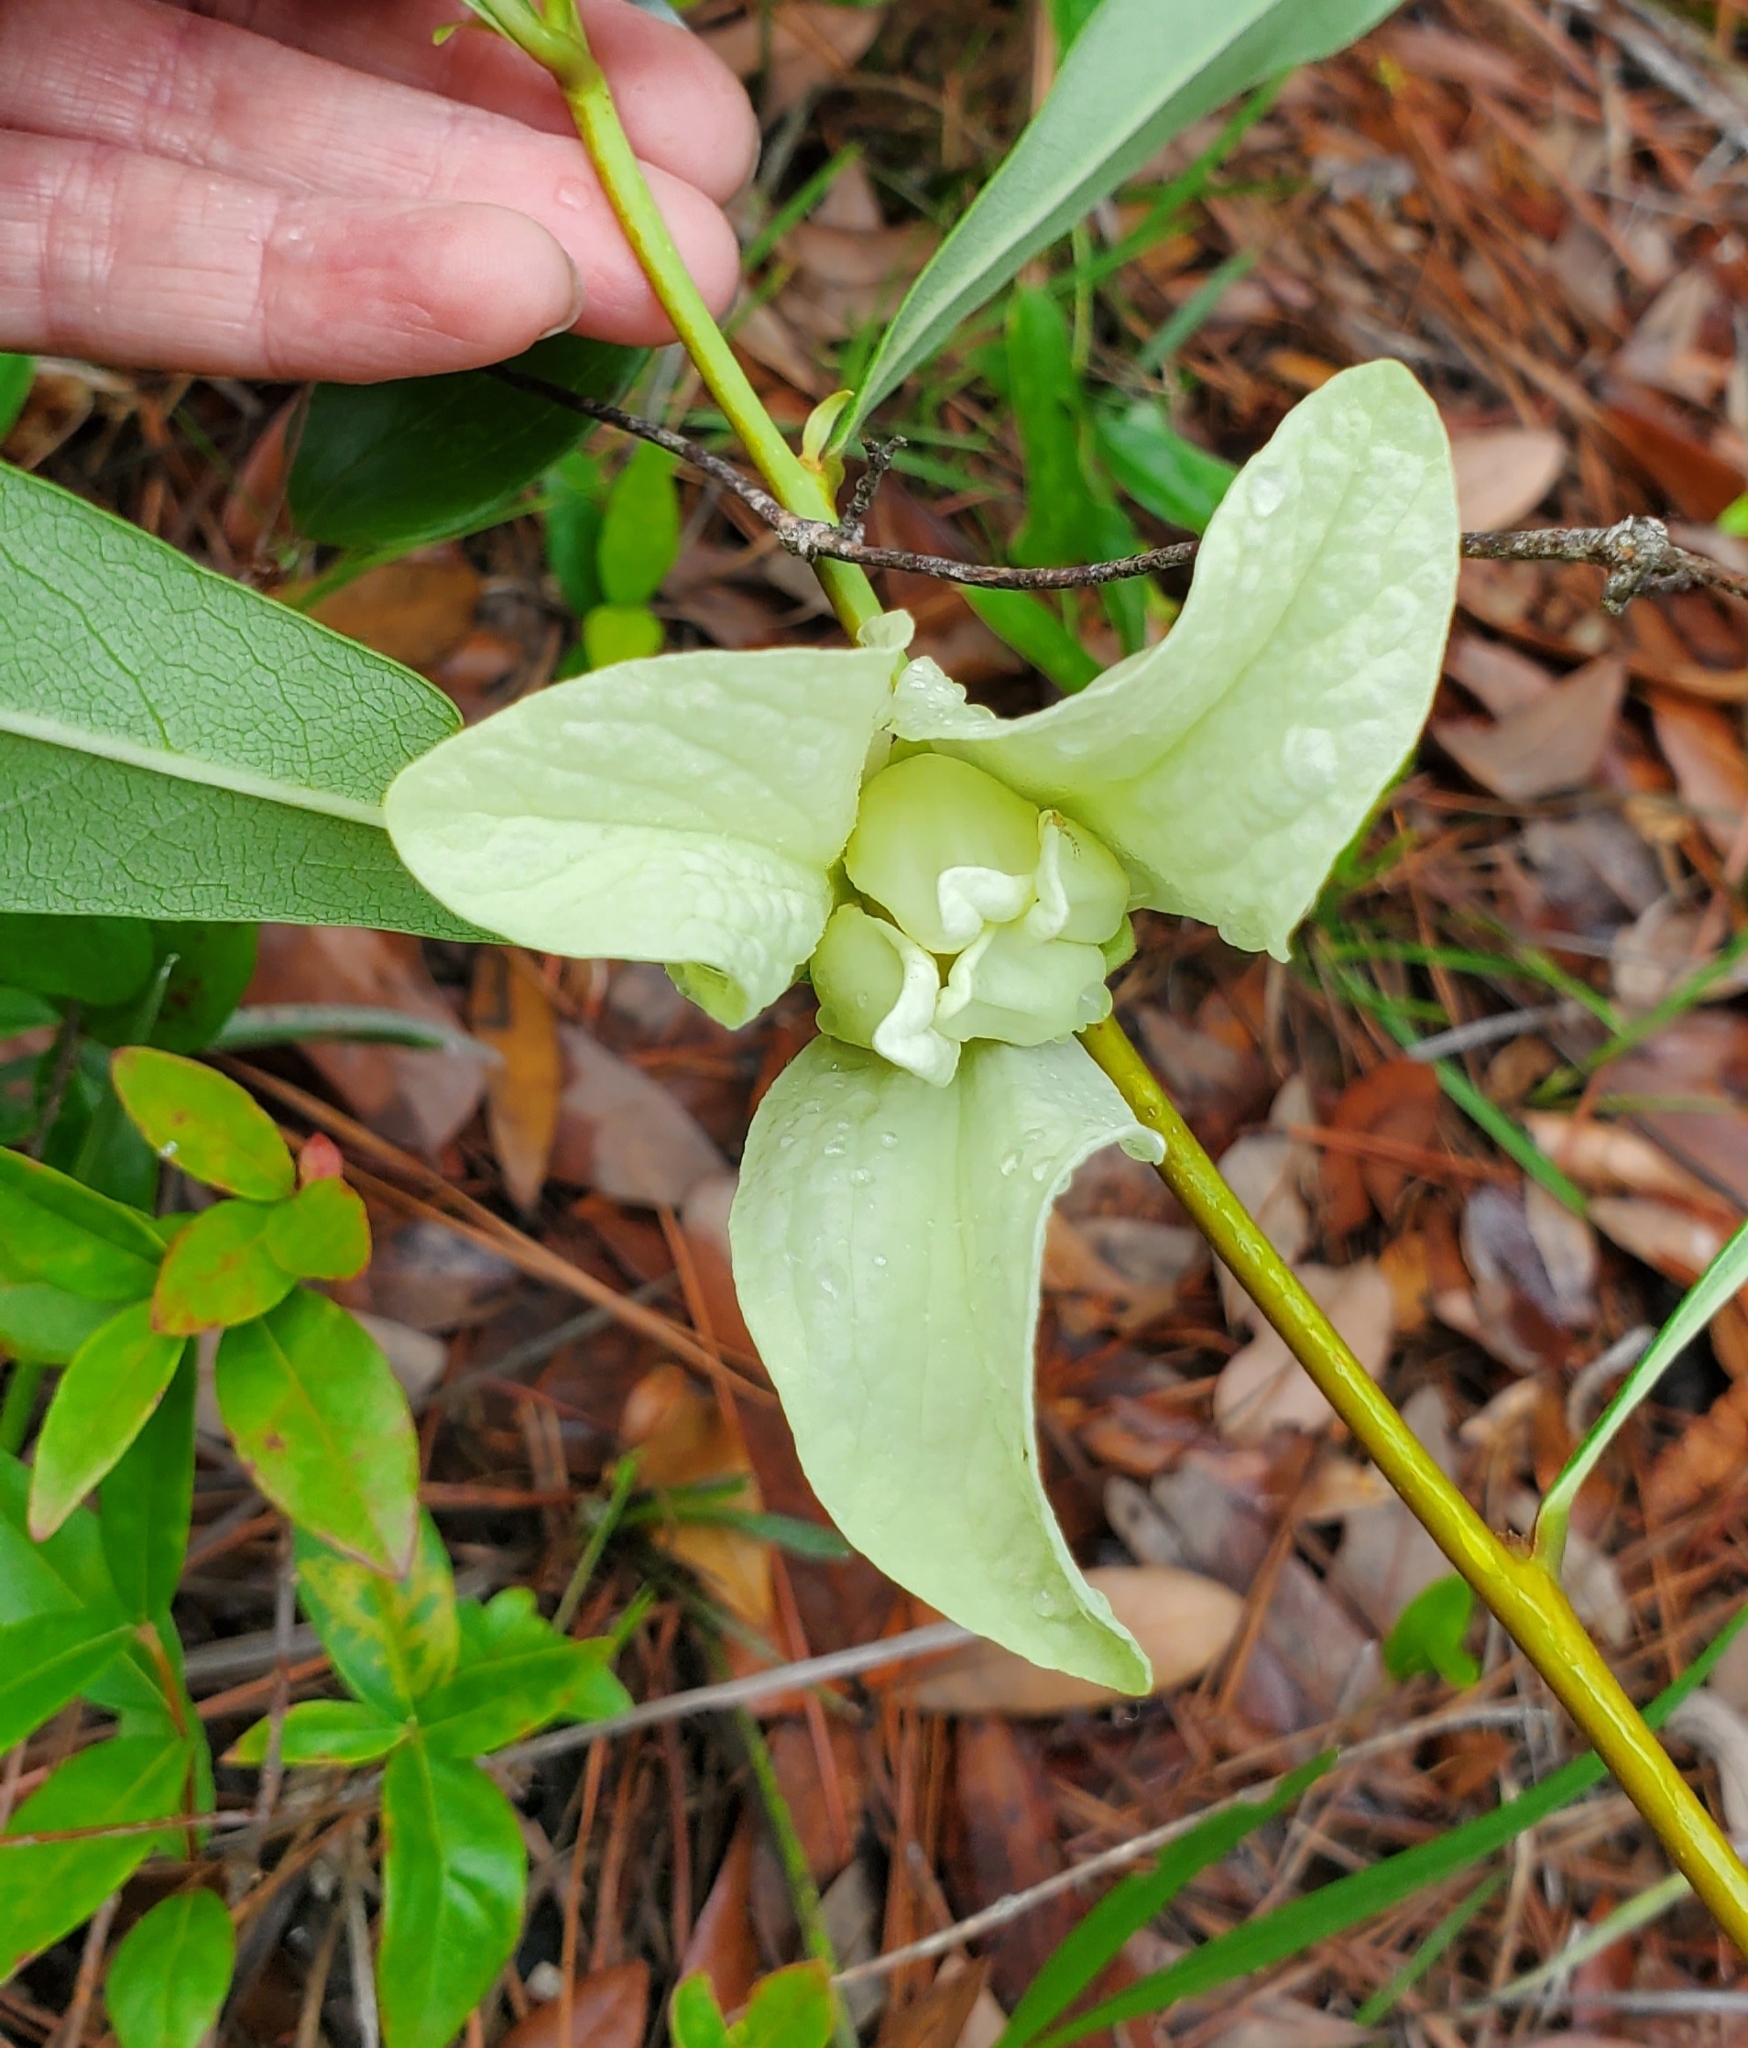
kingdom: Plantae
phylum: Tracheophyta
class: Magnoliopsida
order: Magnoliales
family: Annonaceae
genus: Asimina
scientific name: Asimina longifolia
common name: Polecatbush
